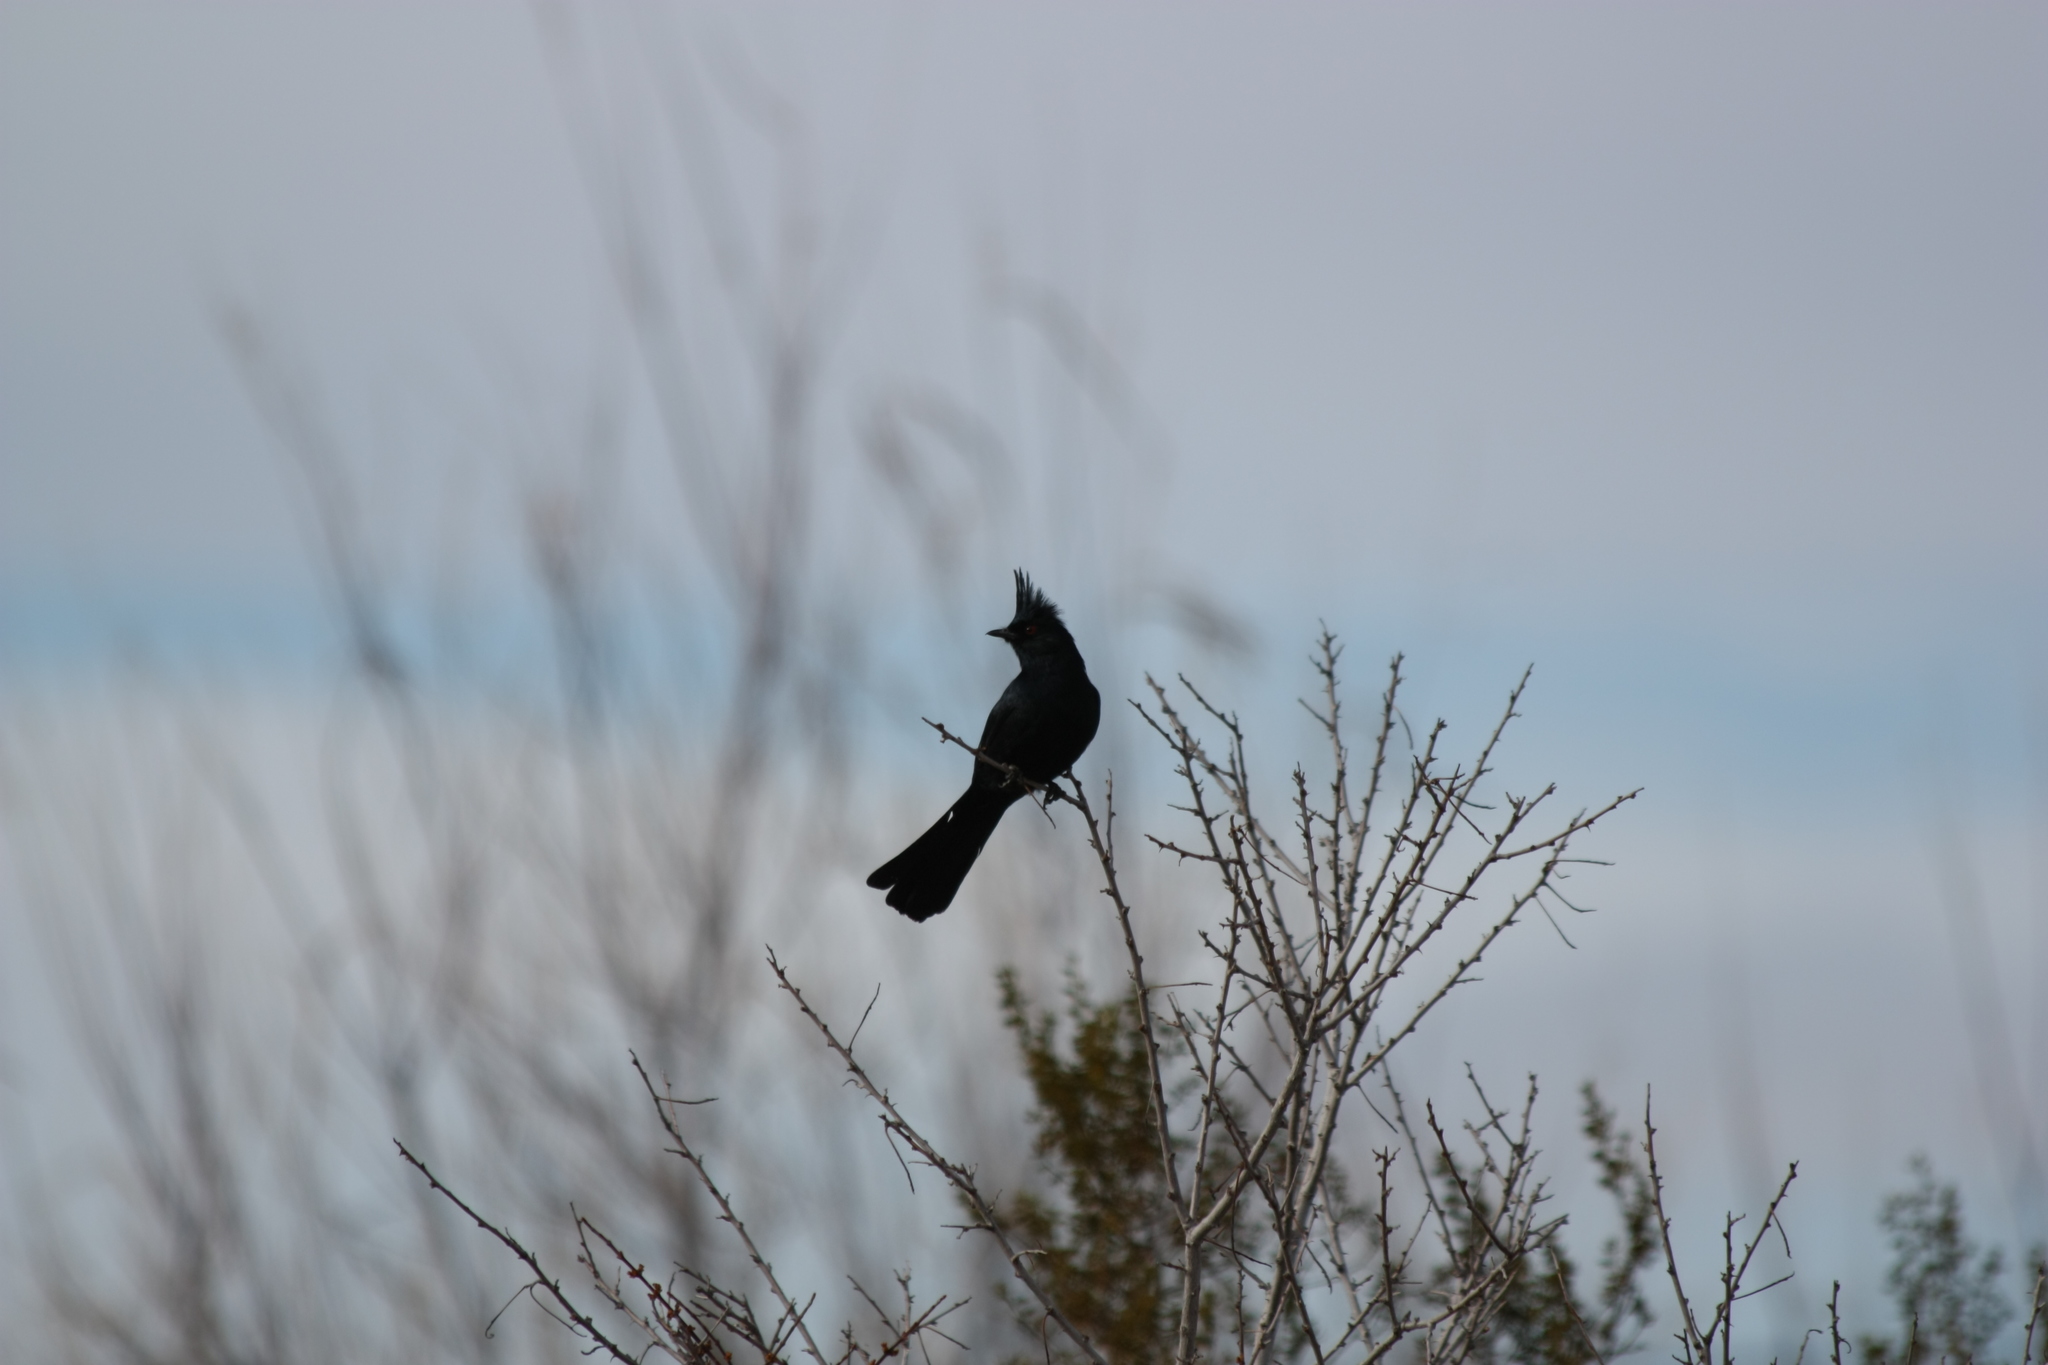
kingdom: Animalia
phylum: Chordata
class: Aves
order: Passeriformes
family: Ptilogonatidae
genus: Phainopepla
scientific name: Phainopepla nitens
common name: Phainopepla
